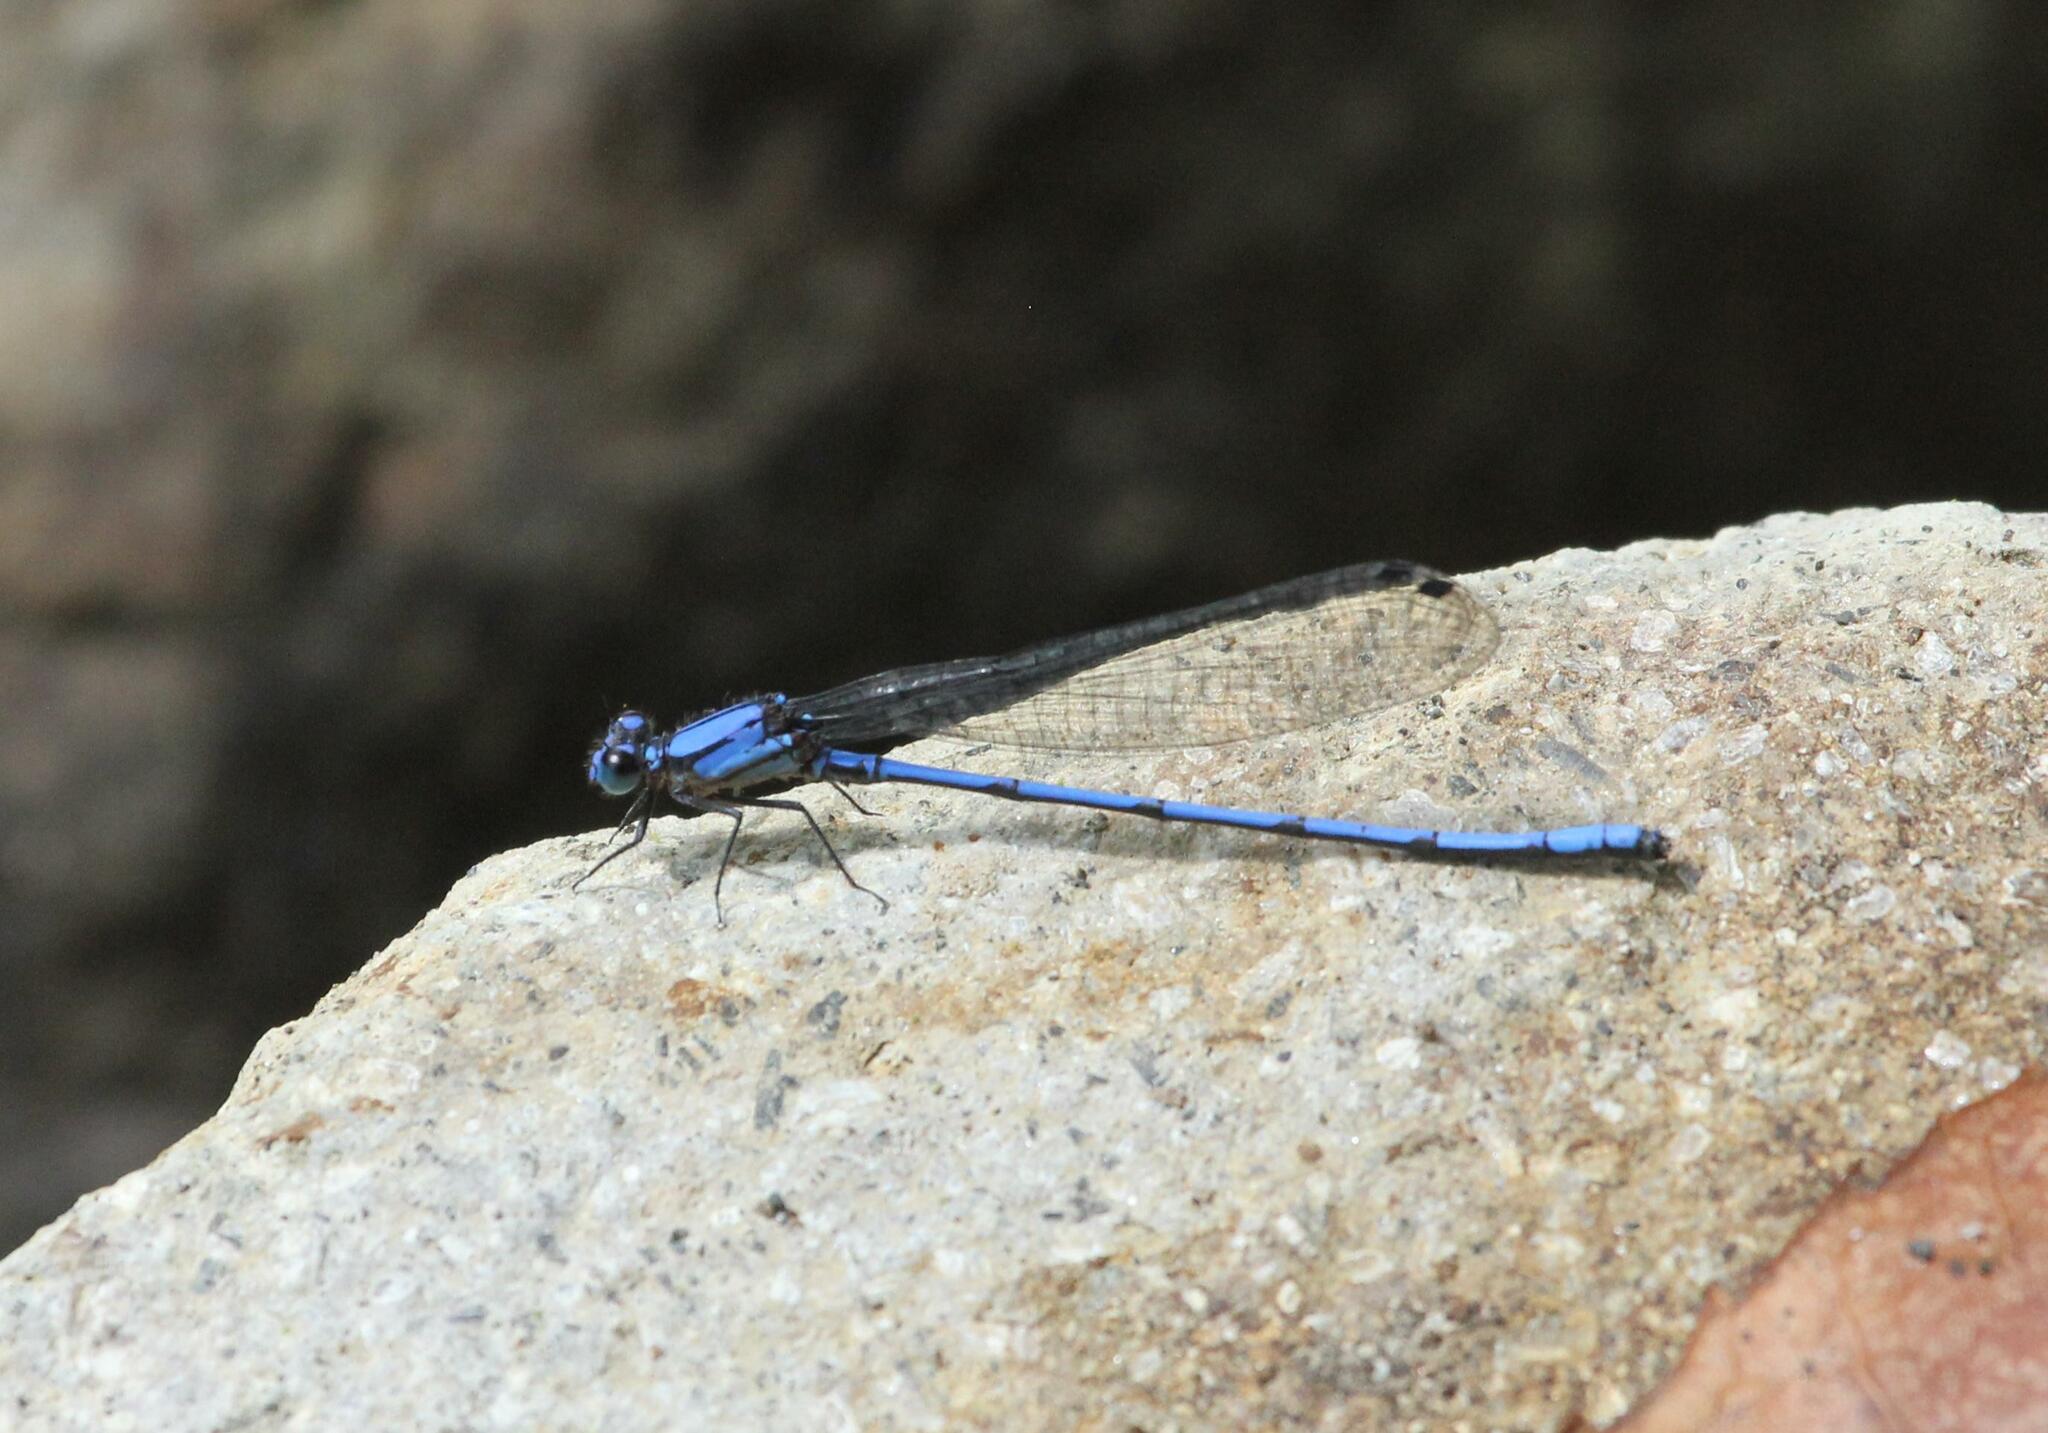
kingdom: Animalia
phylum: Arthropoda
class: Insecta
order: Odonata
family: Coenagrionidae
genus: Argia
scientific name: Argia medullaris
